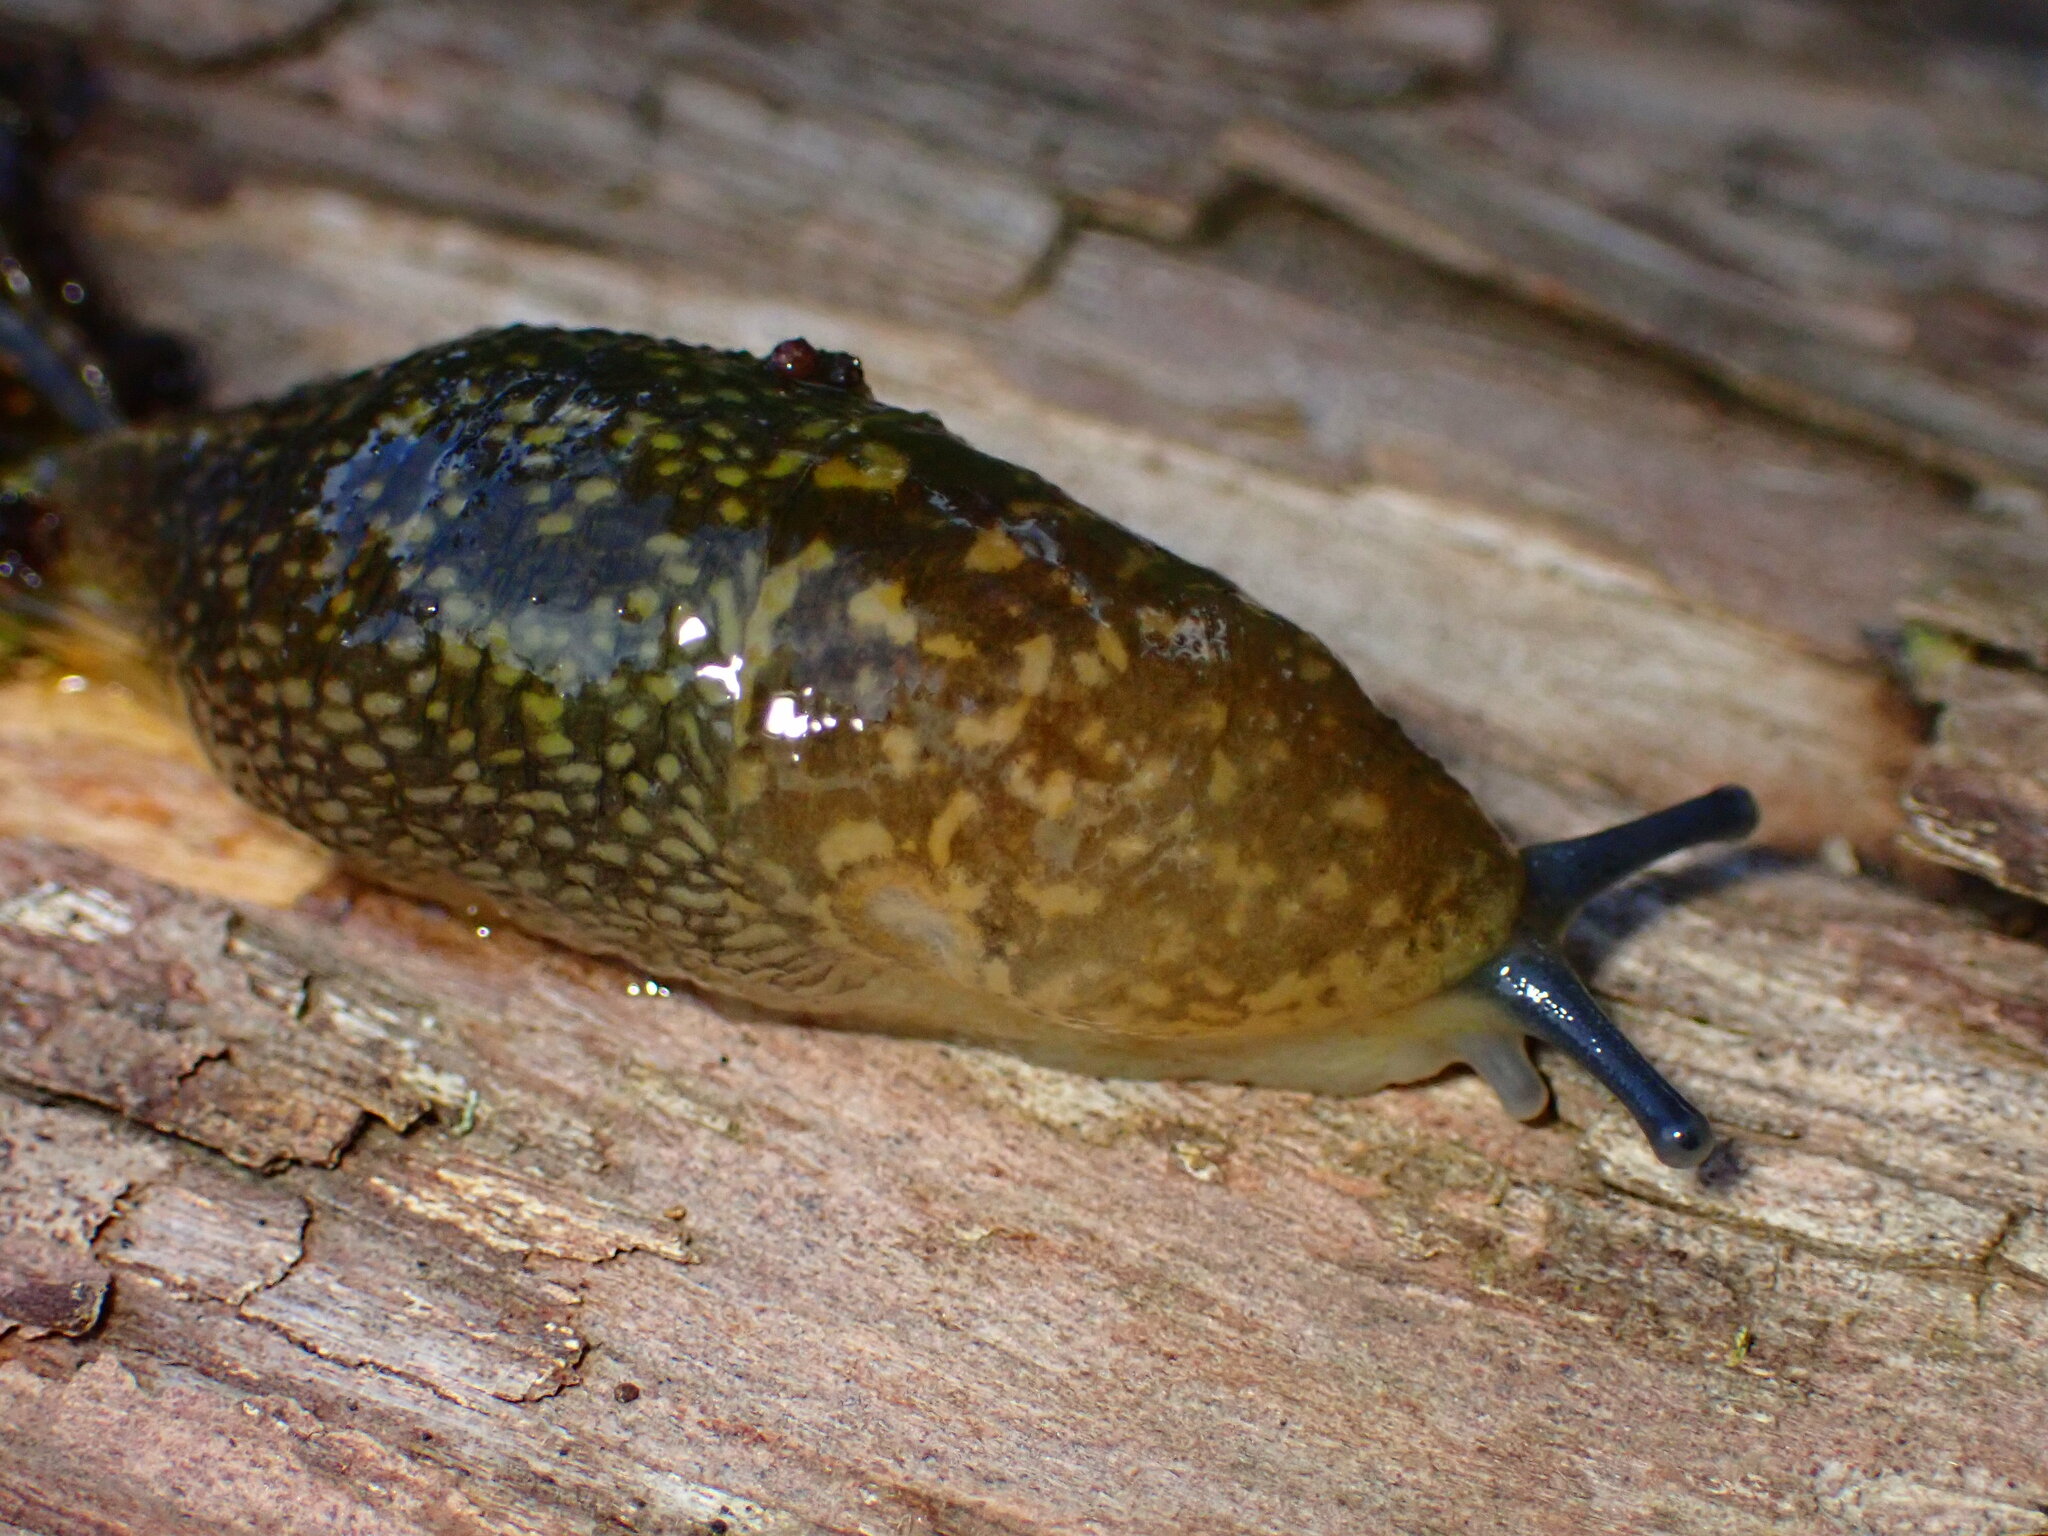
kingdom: Animalia
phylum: Mollusca
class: Gastropoda
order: Stylommatophora
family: Limacidae
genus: Limacus
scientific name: Limacus flavus
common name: Yellow gardenslug
